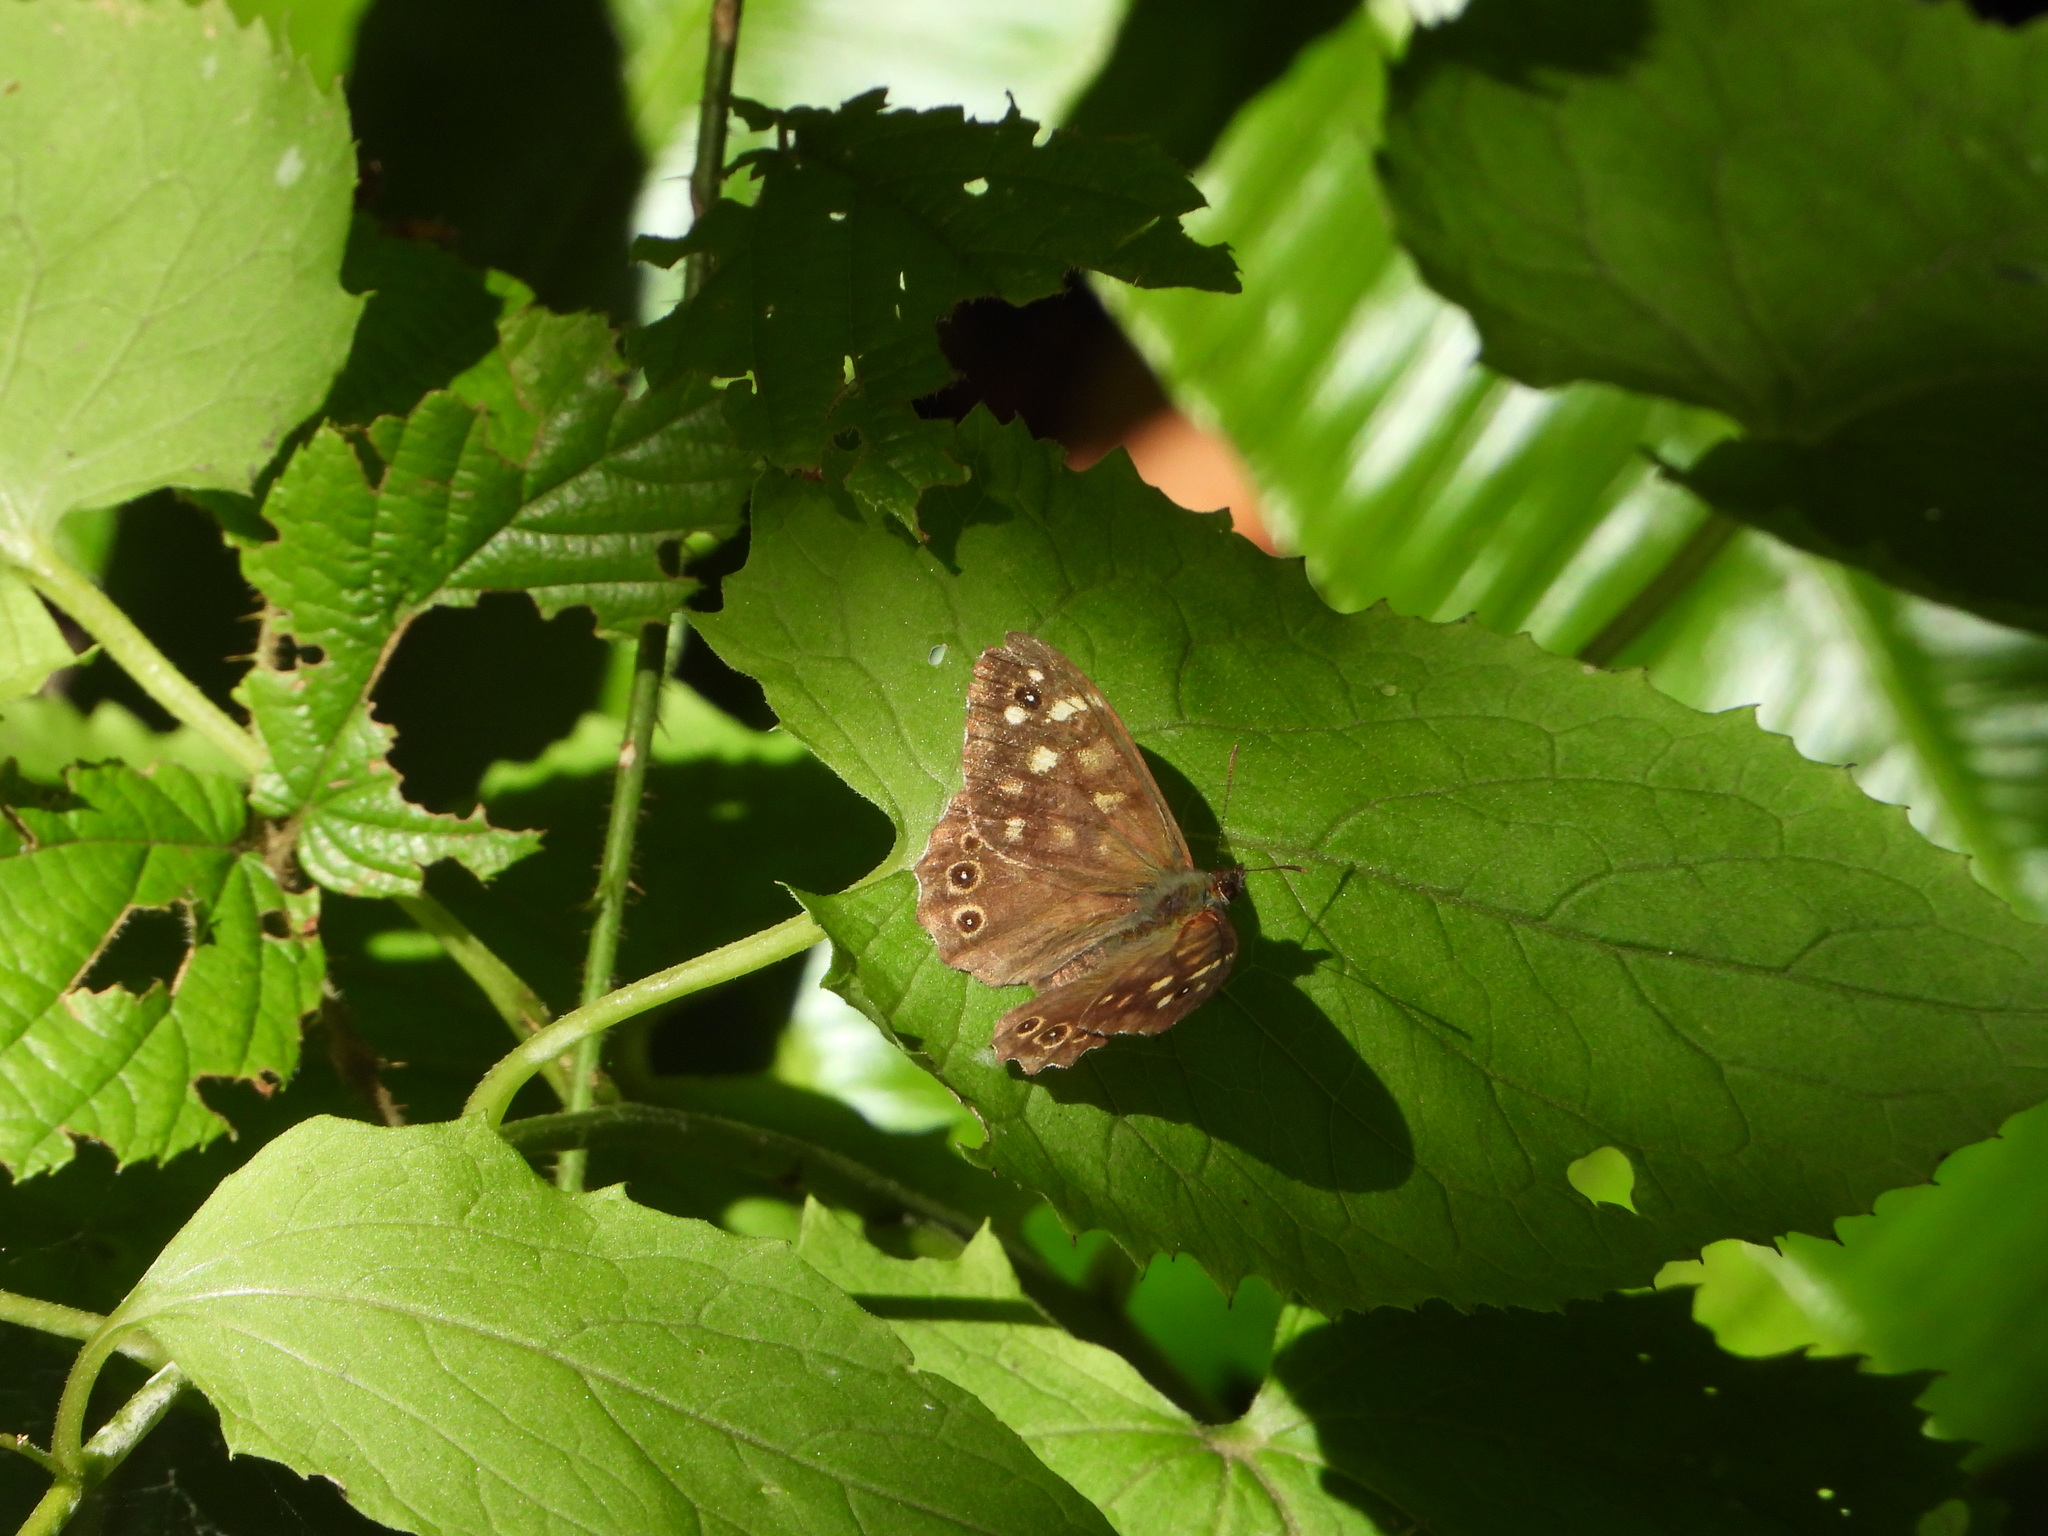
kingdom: Animalia
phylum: Arthropoda
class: Insecta
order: Lepidoptera
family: Nymphalidae
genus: Pararge
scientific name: Pararge aegeria
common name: Speckled wood
